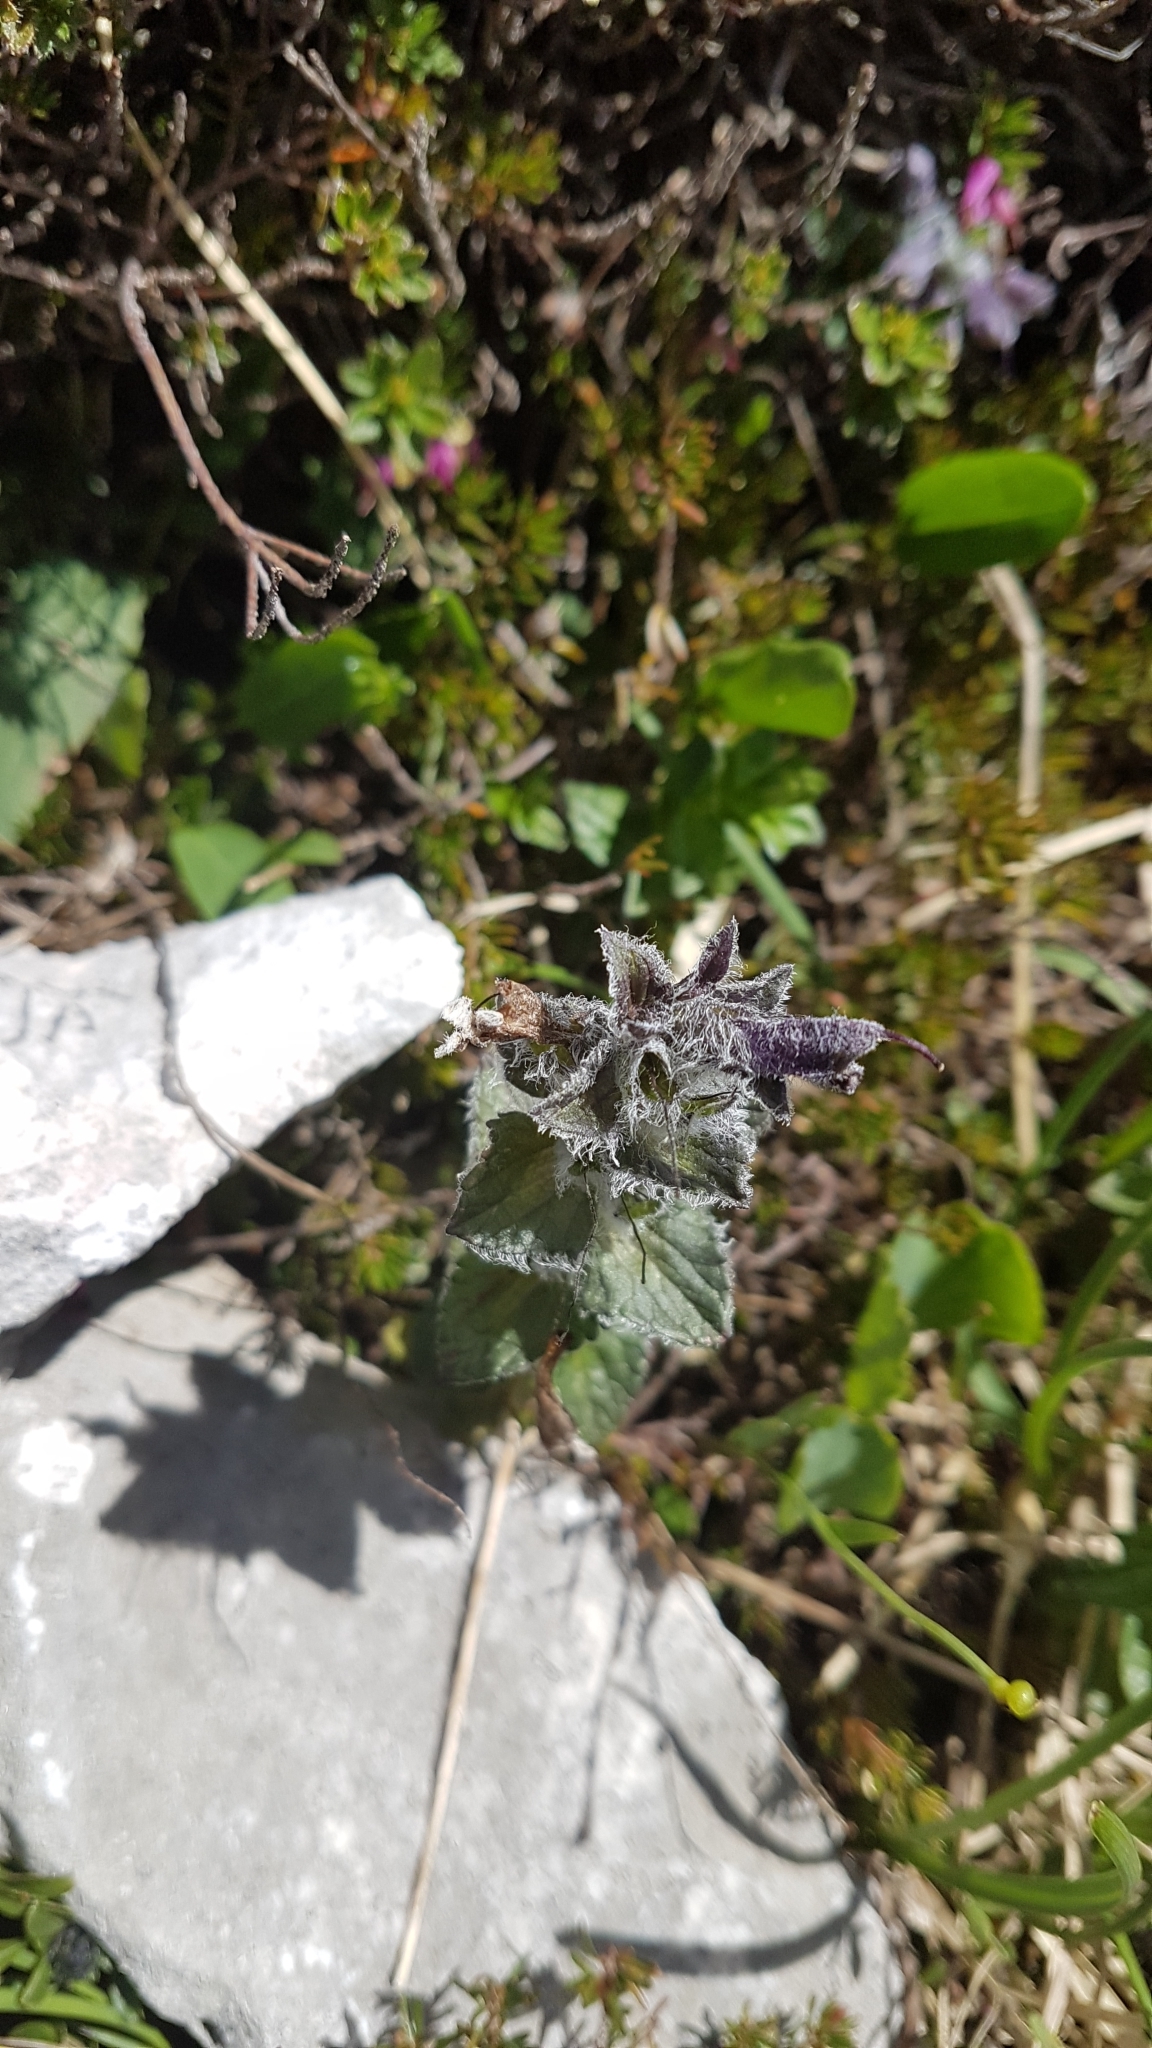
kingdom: Plantae
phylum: Tracheophyta
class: Magnoliopsida
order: Lamiales
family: Orobanchaceae
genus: Bartsia
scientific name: Bartsia alpina
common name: Alpine bartsia
